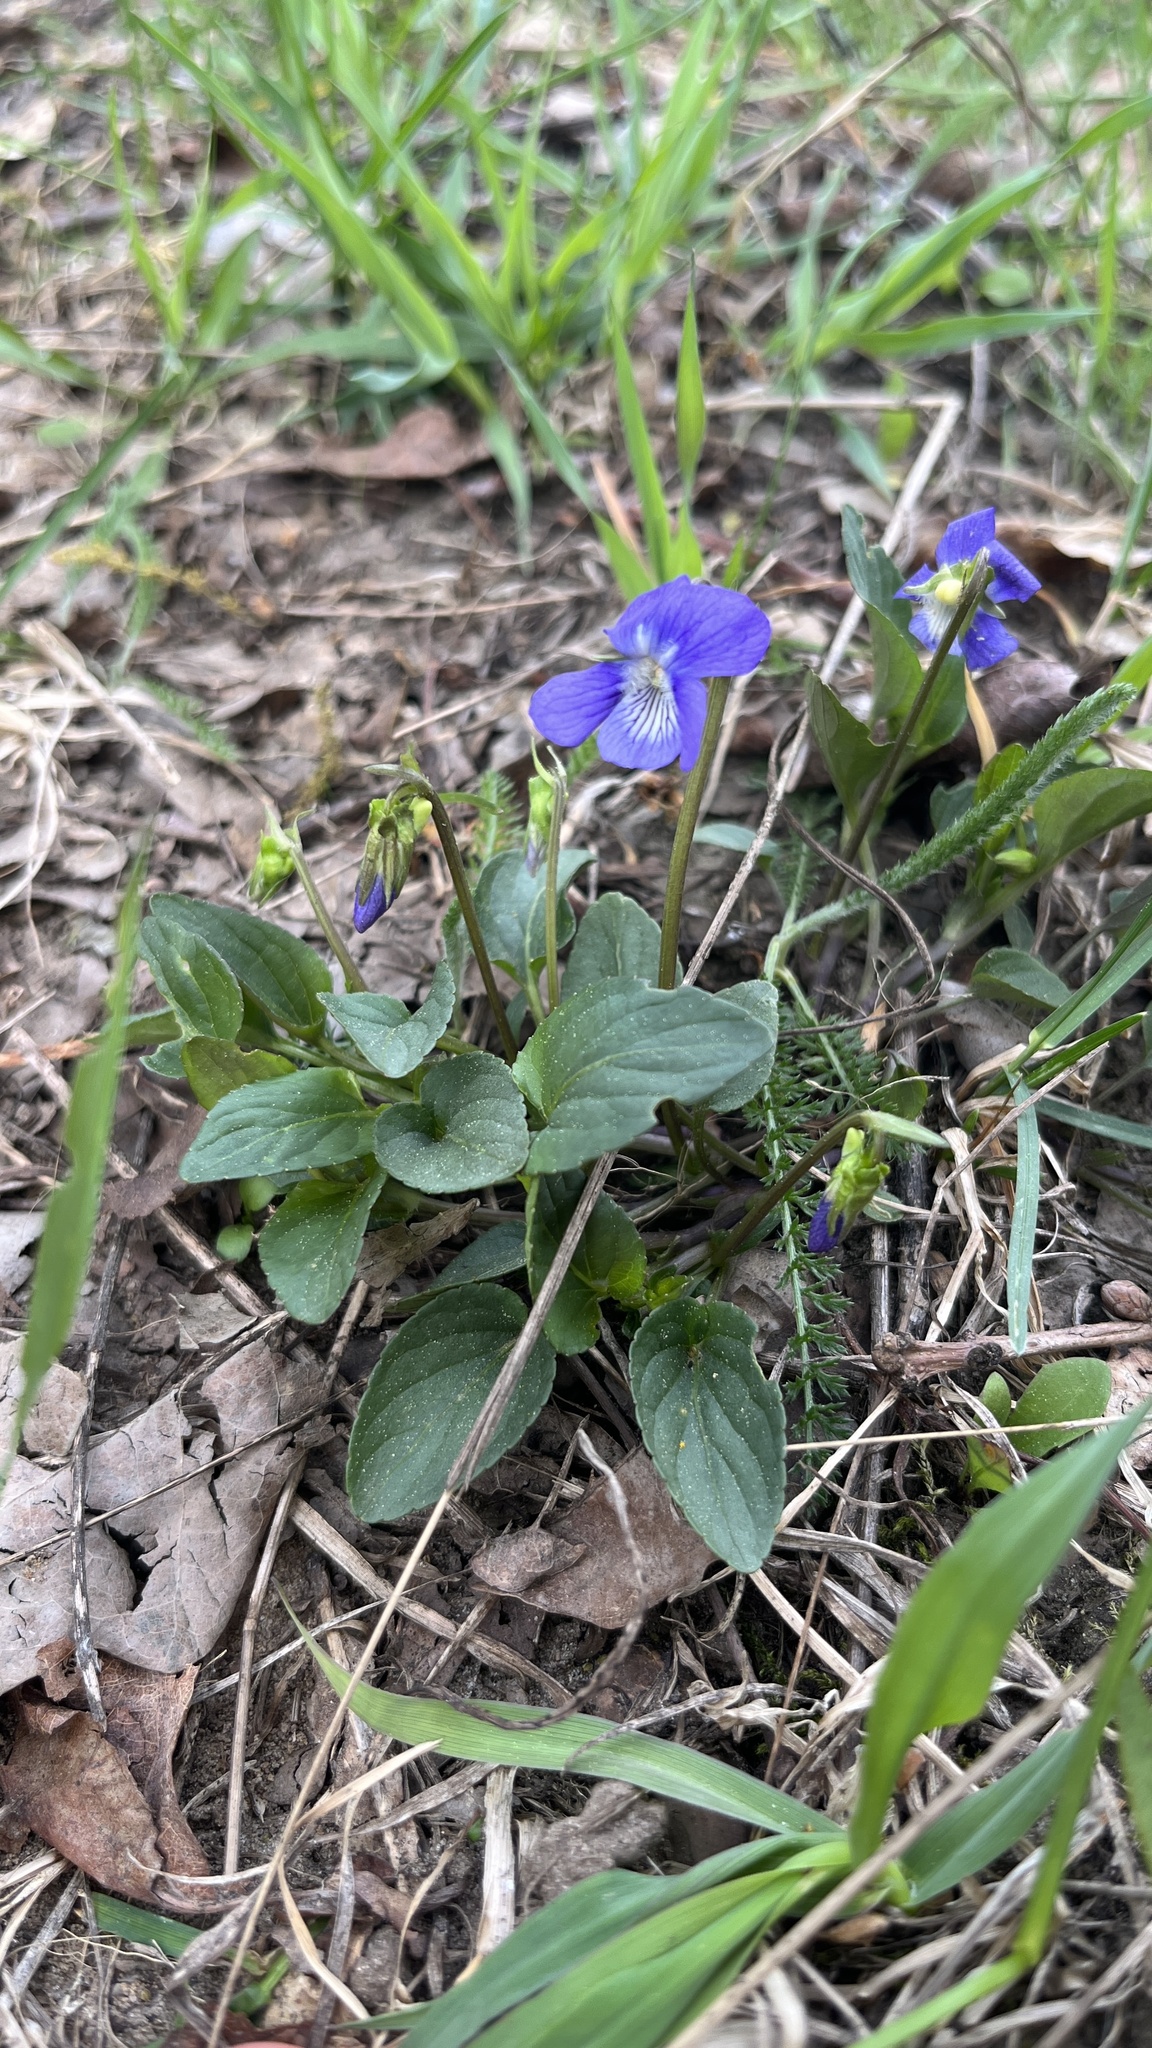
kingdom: Plantae
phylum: Tracheophyta
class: Magnoliopsida
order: Malpighiales
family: Violaceae
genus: Viola
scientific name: Viola canina
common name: Heath dog-violet
